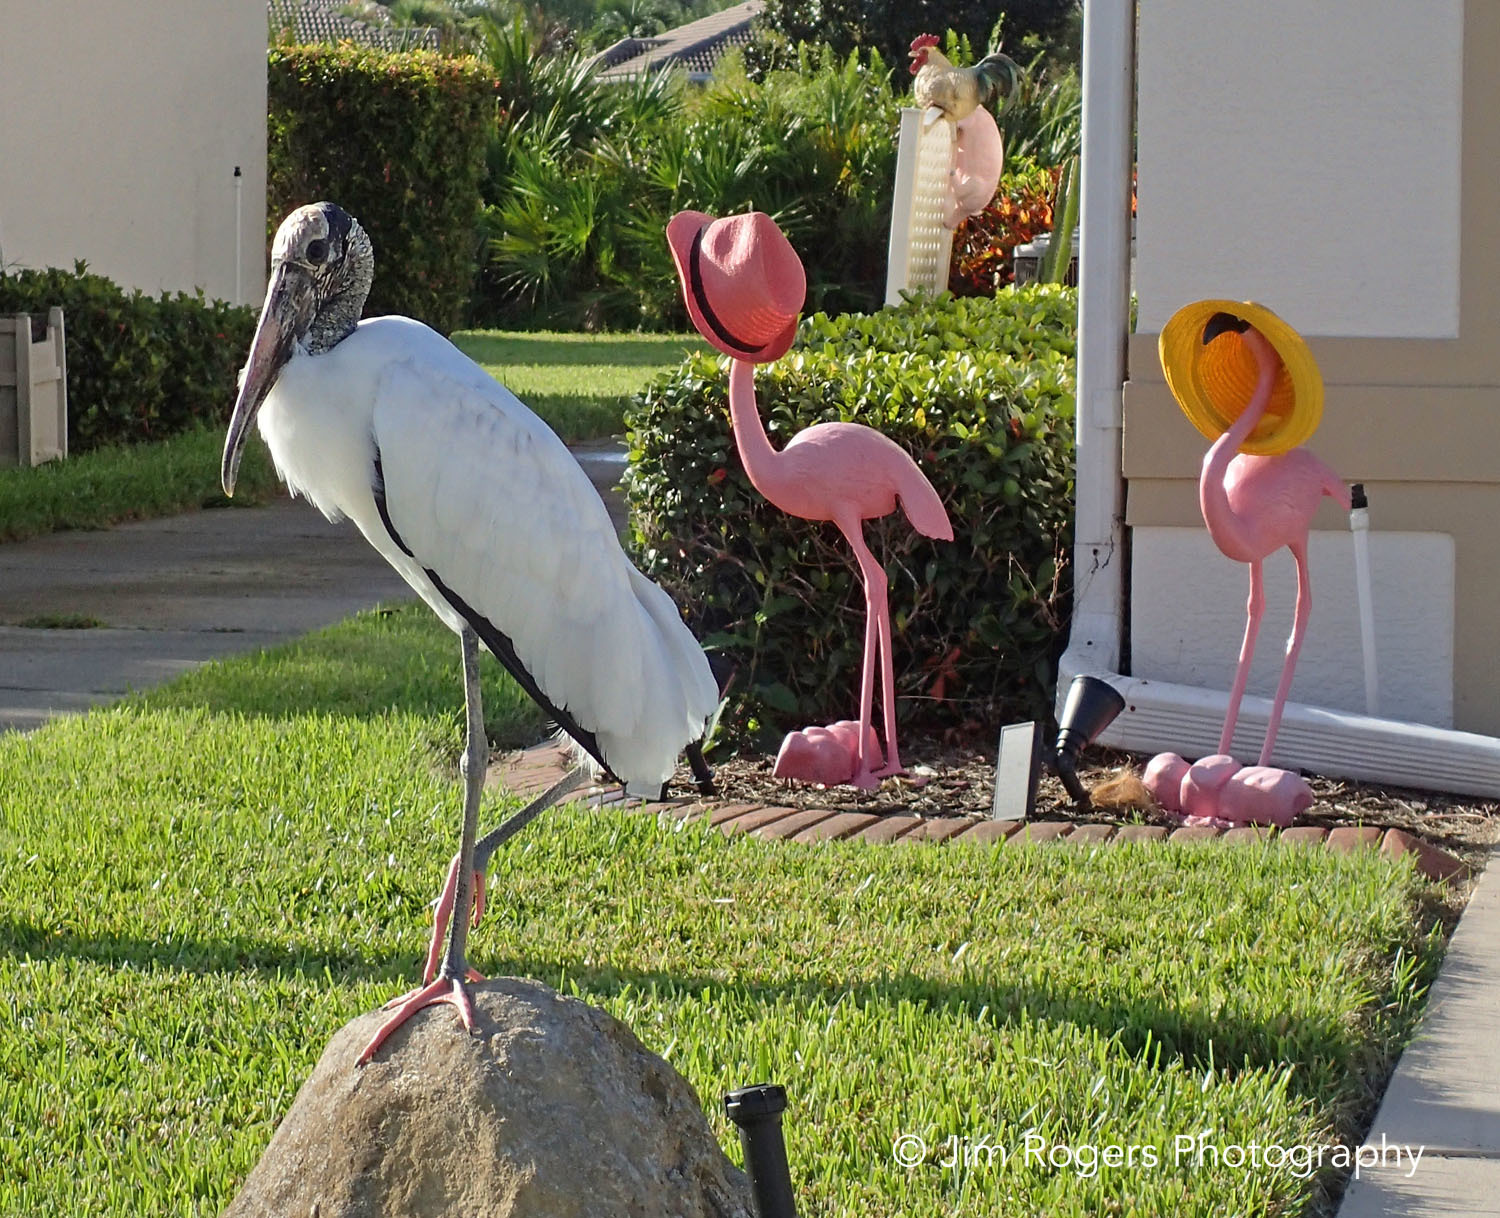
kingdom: Animalia
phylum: Chordata
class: Aves
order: Ciconiiformes
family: Ciconiidae
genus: Mycteria
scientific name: Mycteria americana
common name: Wood stork
